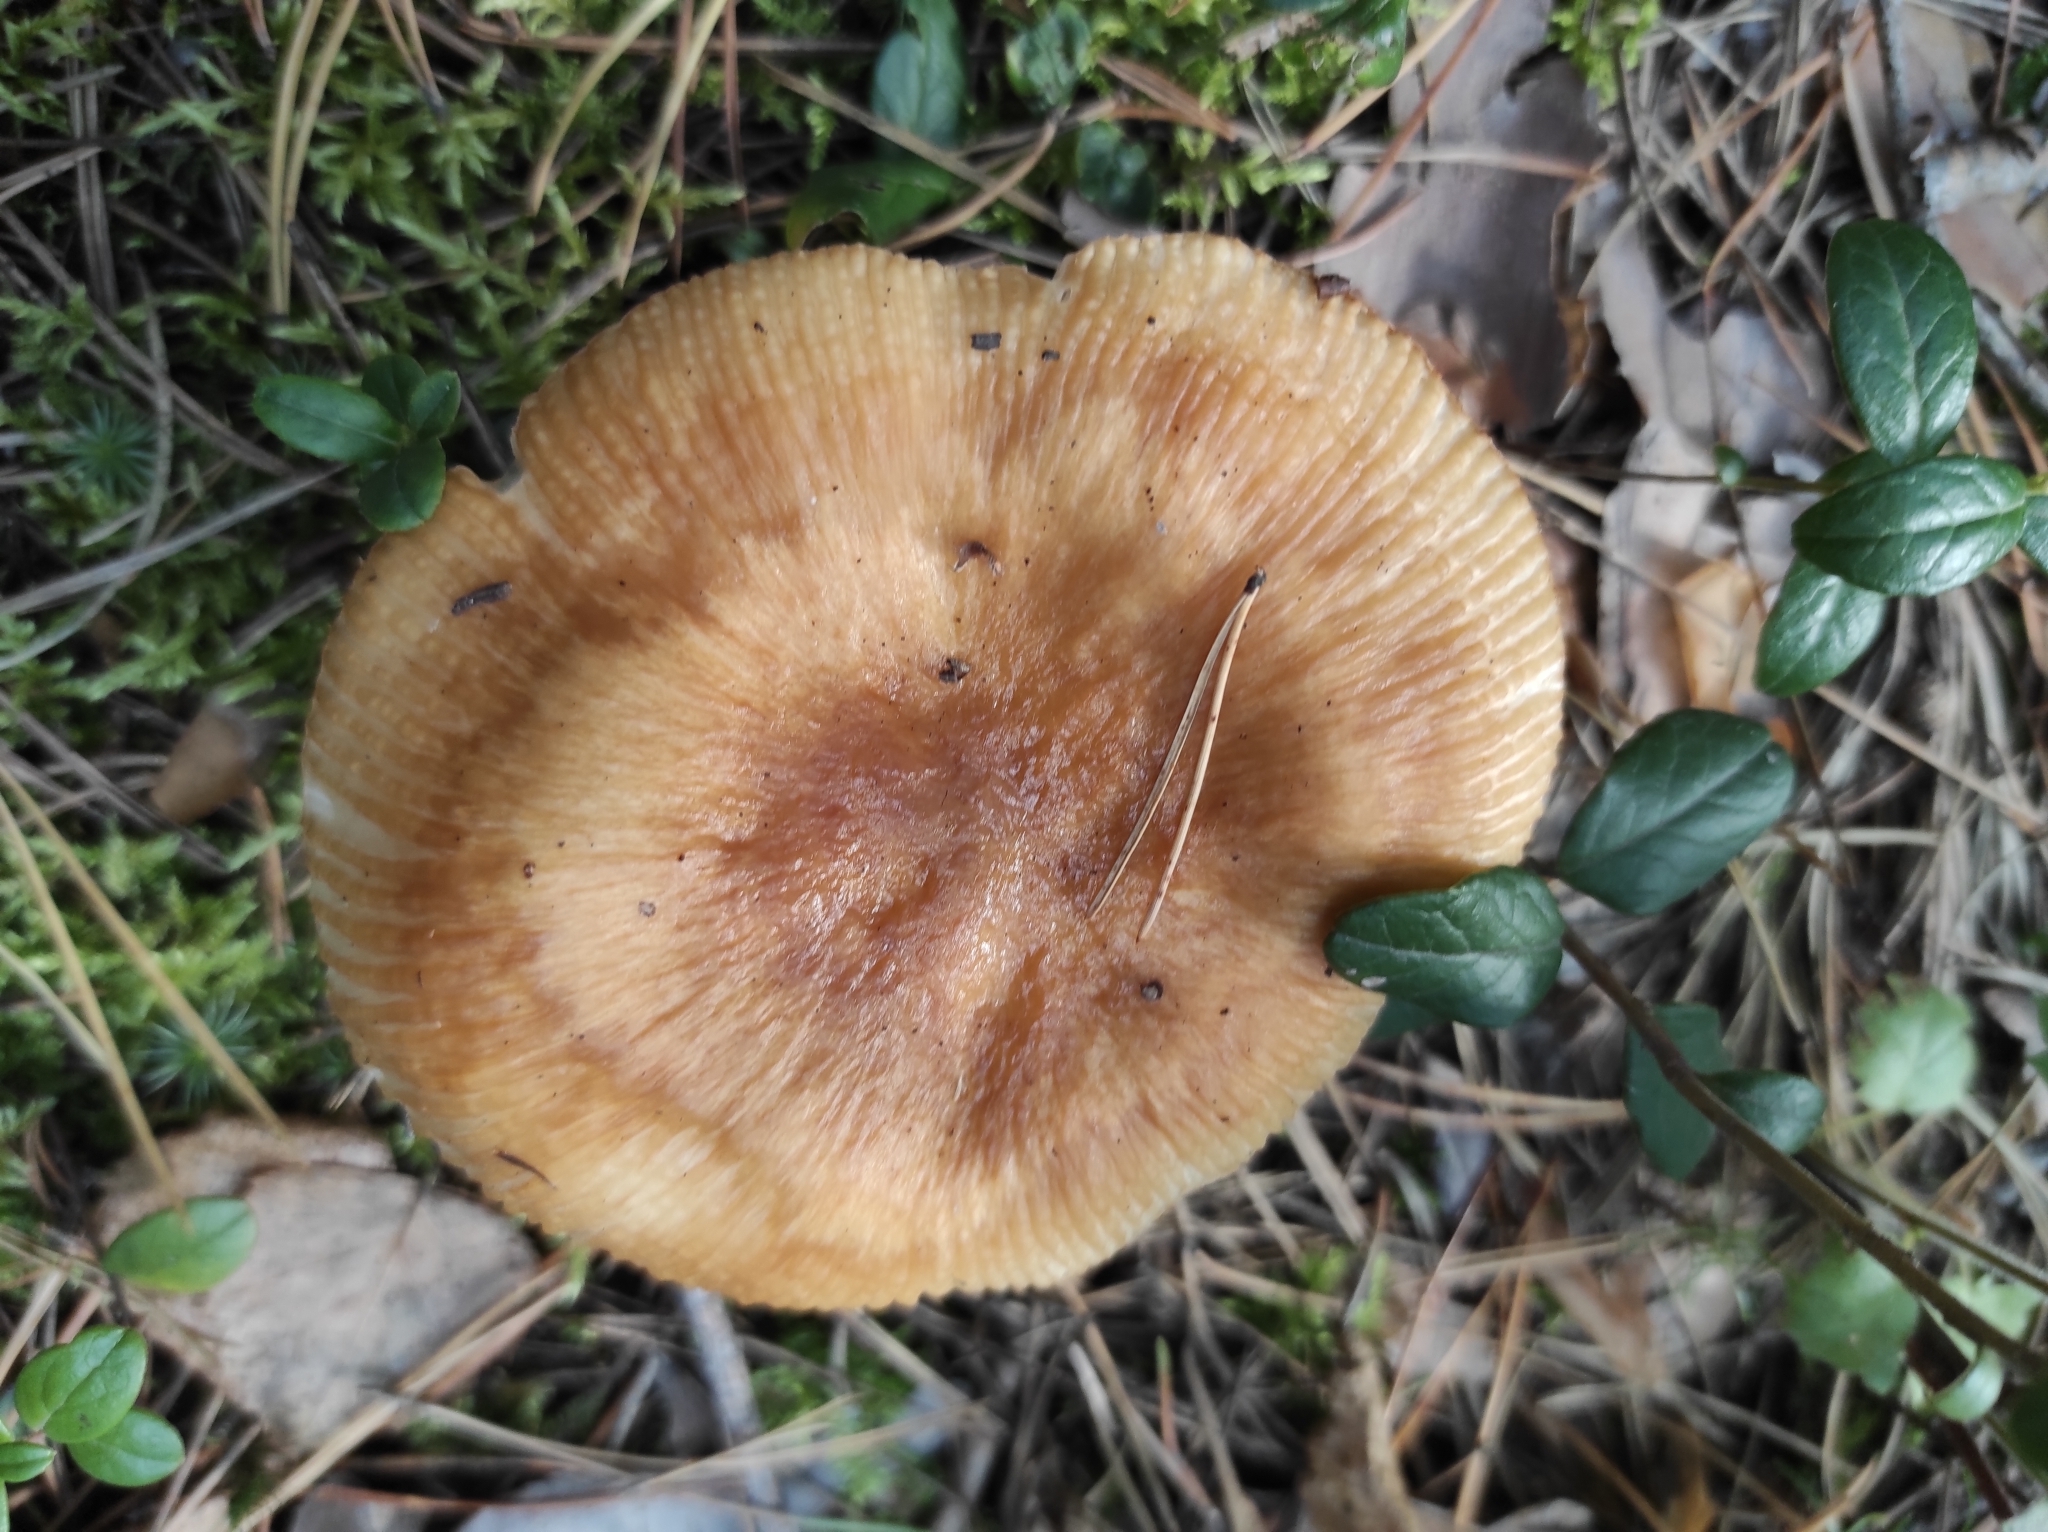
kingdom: Fungi
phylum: Basidiomycota
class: Agaricomycetes
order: Russulales
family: Russulaceae
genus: Russula
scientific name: Russula foetens
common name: Foetid russula
